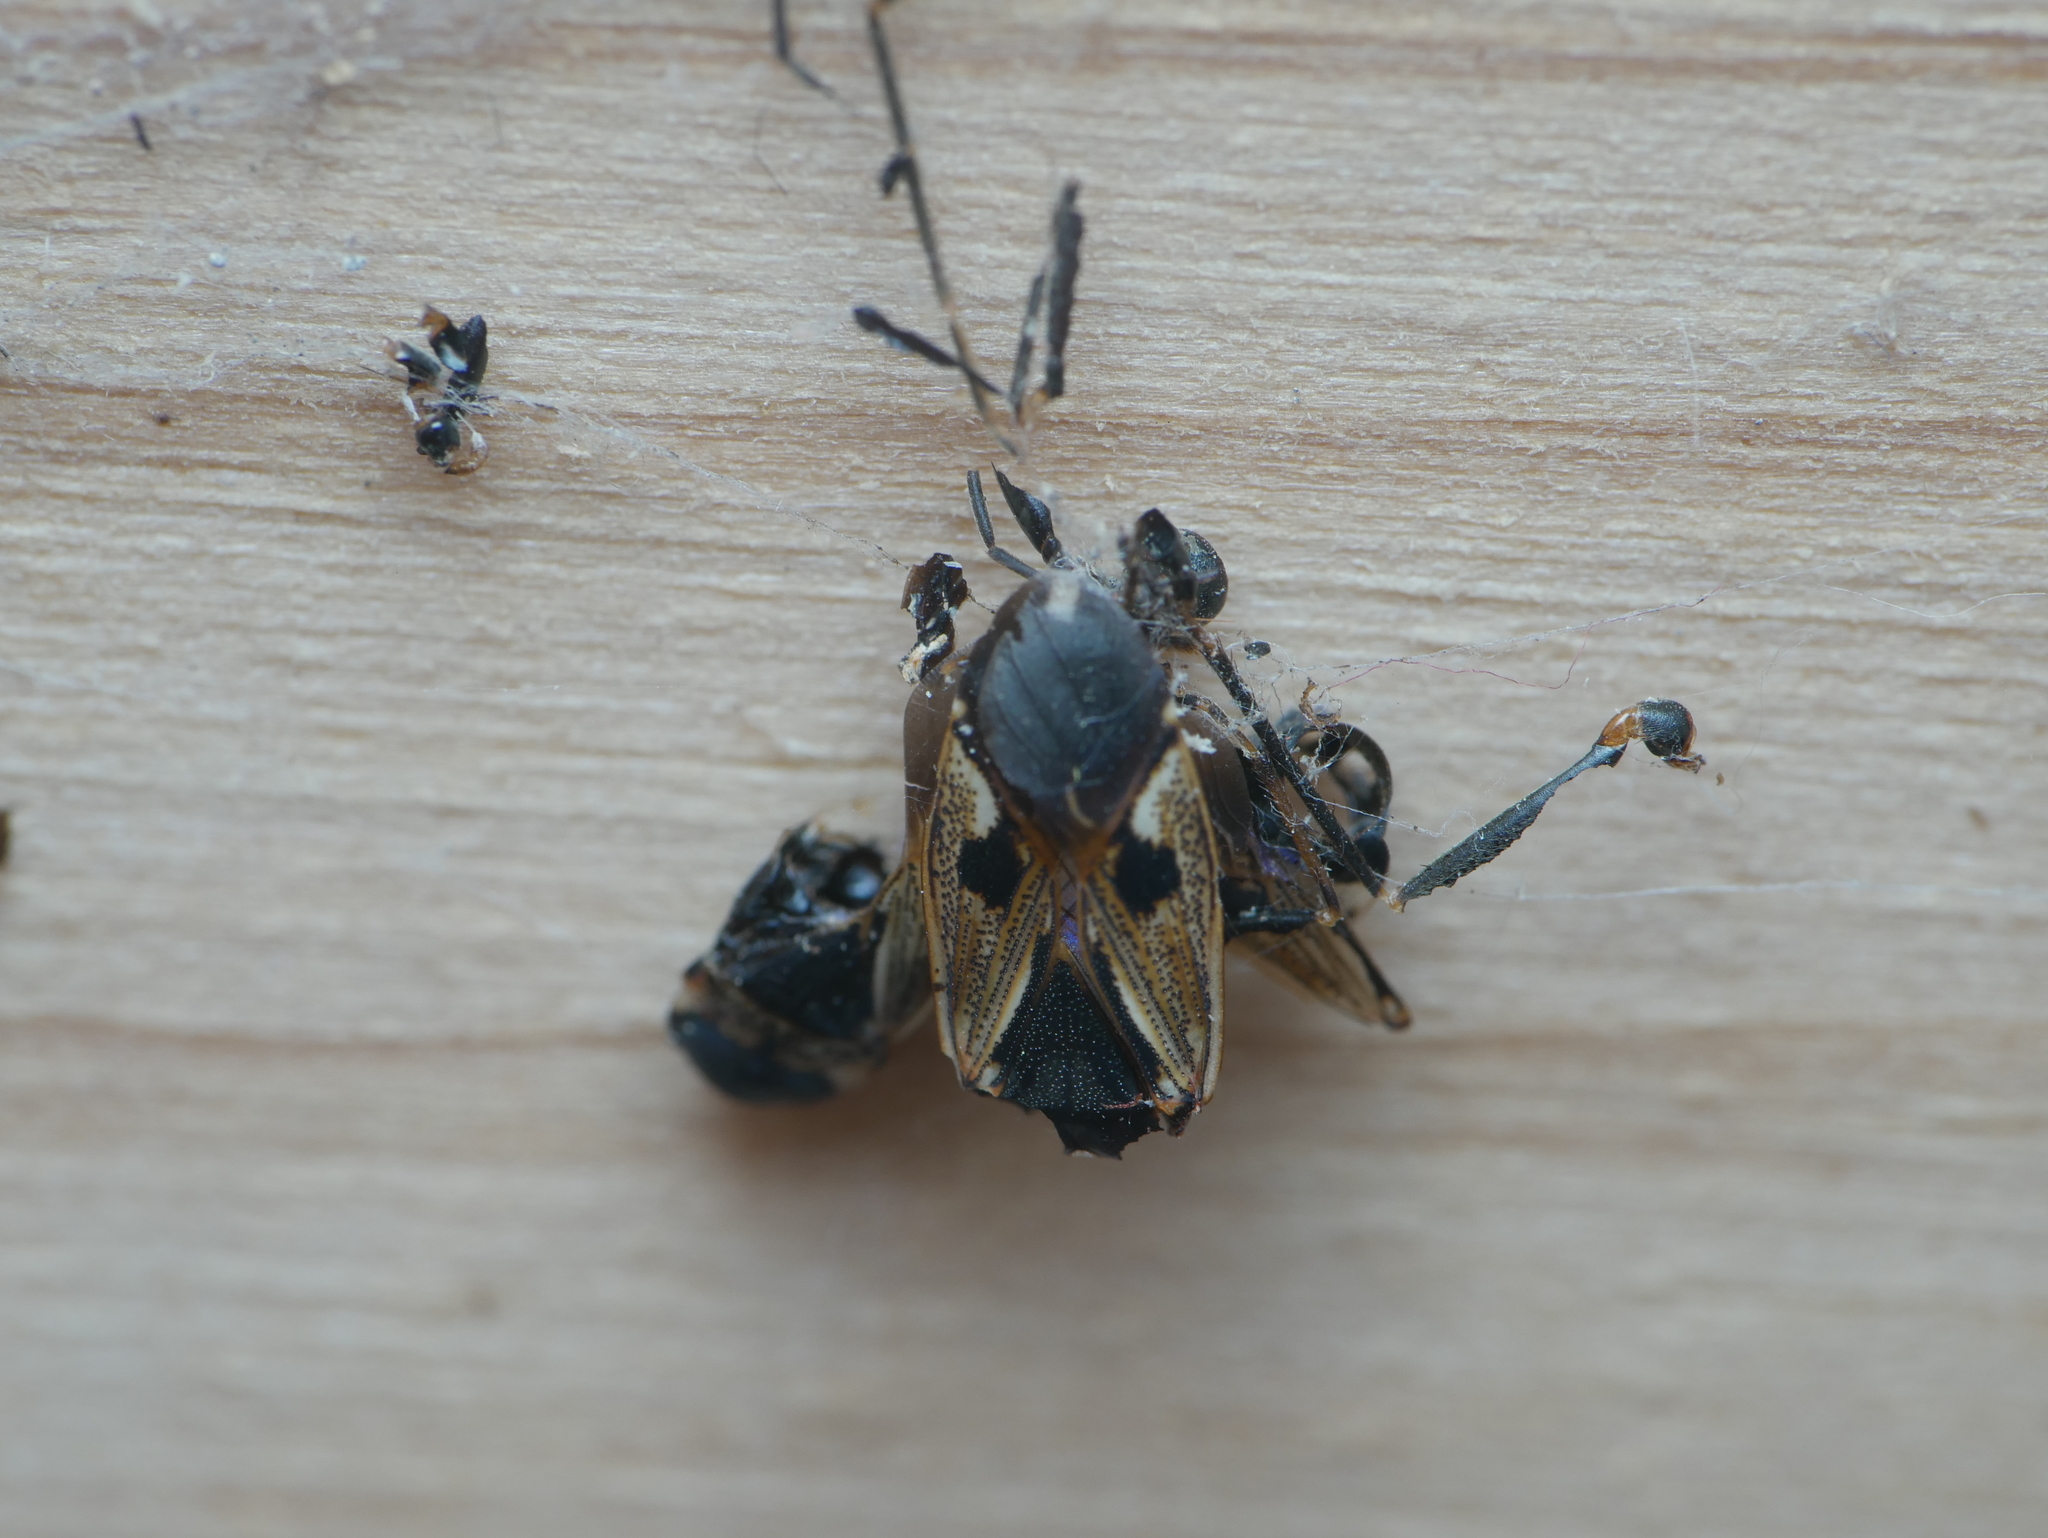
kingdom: Animalia
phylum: Arthropoda
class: Insecta
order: Hemiptera
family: Rhyparochromidae
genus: Rhyparochromus
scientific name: Rhyparochromus vulgaris
